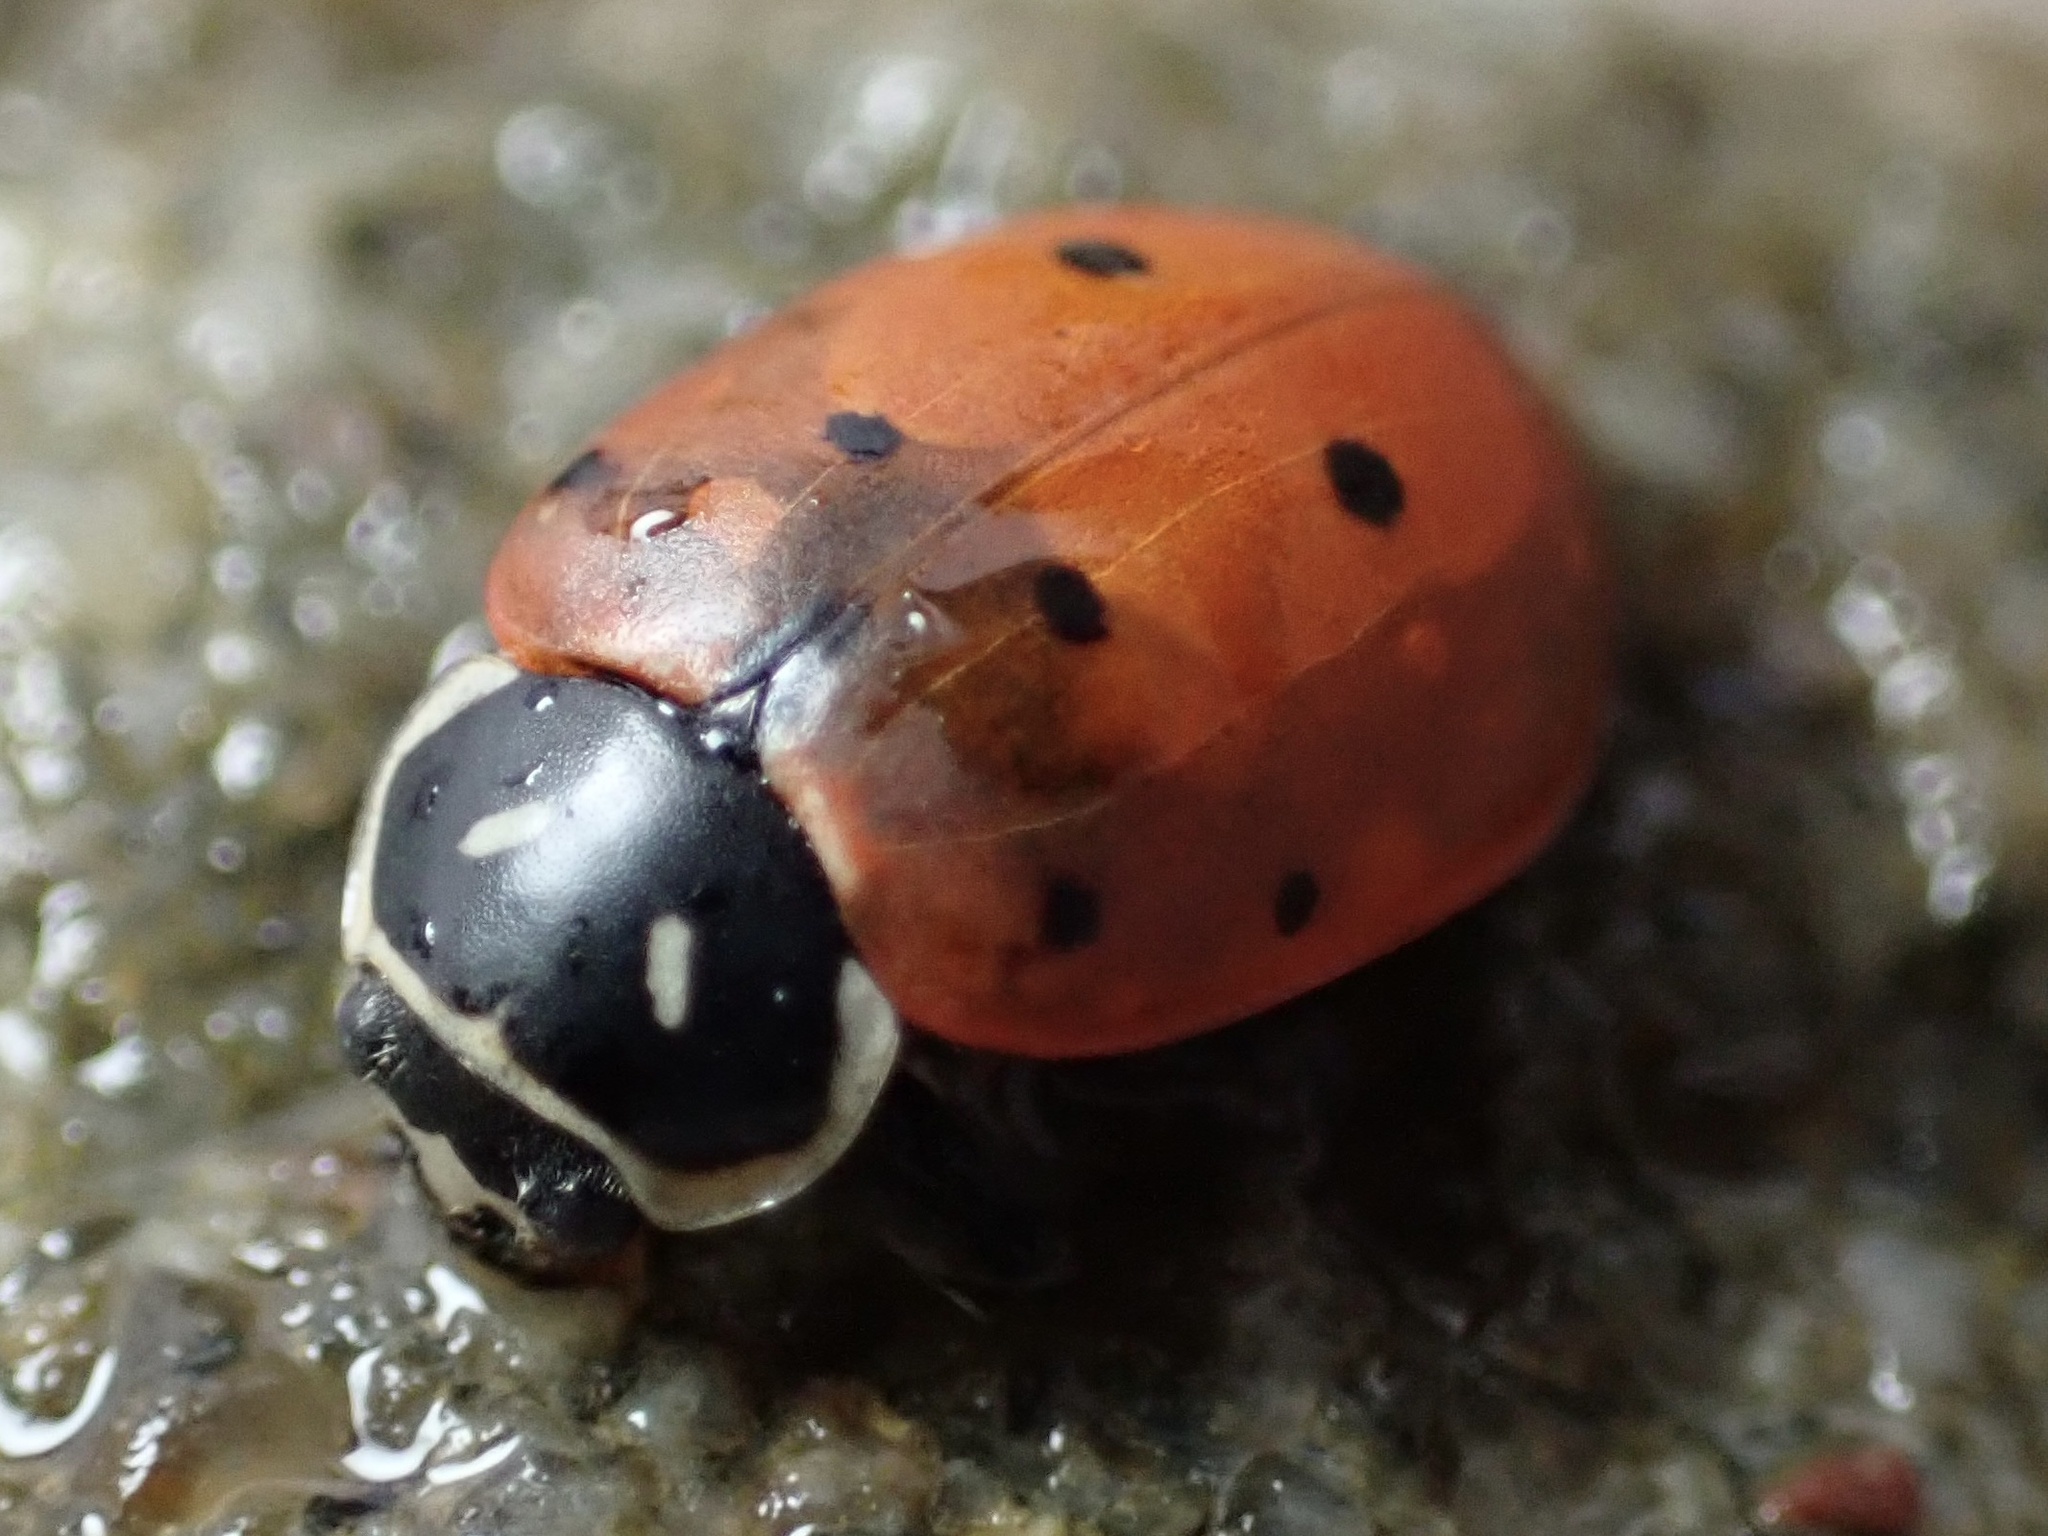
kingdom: Animalia
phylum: Arthropoda
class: Insecta
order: Coleoptera
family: Coccinellidae
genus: Hippodamia
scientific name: Hippodamia convergens
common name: Convergent lady beetle
